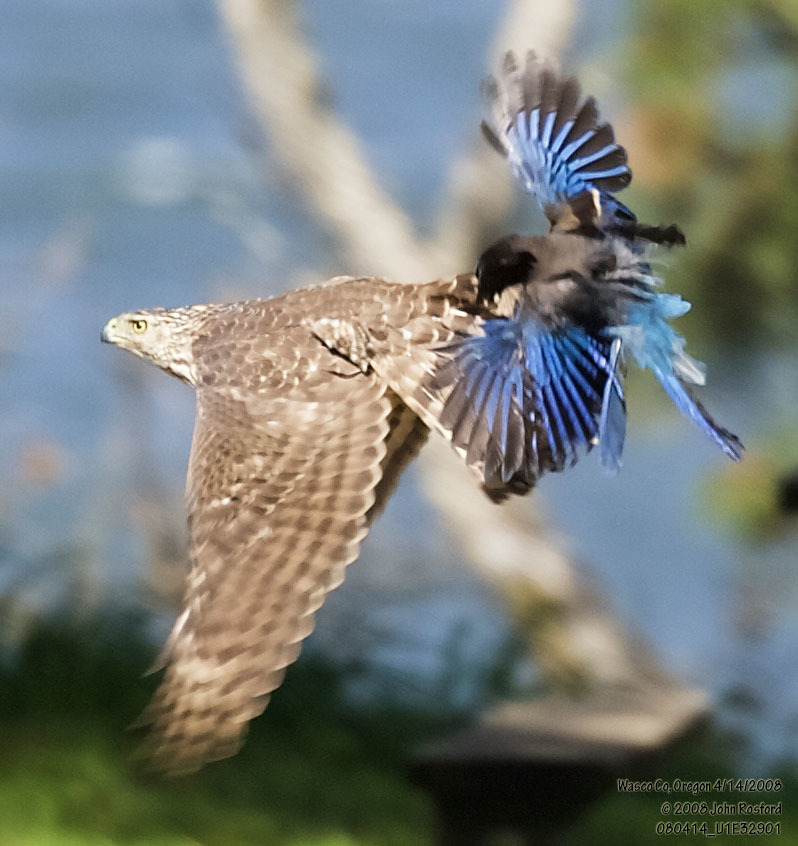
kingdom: Animalia
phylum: Chordata
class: Aves
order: Accipitriformes
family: Accipitridae
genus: Accipiter
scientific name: Accipiter cooperii
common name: Cooper's hawk
